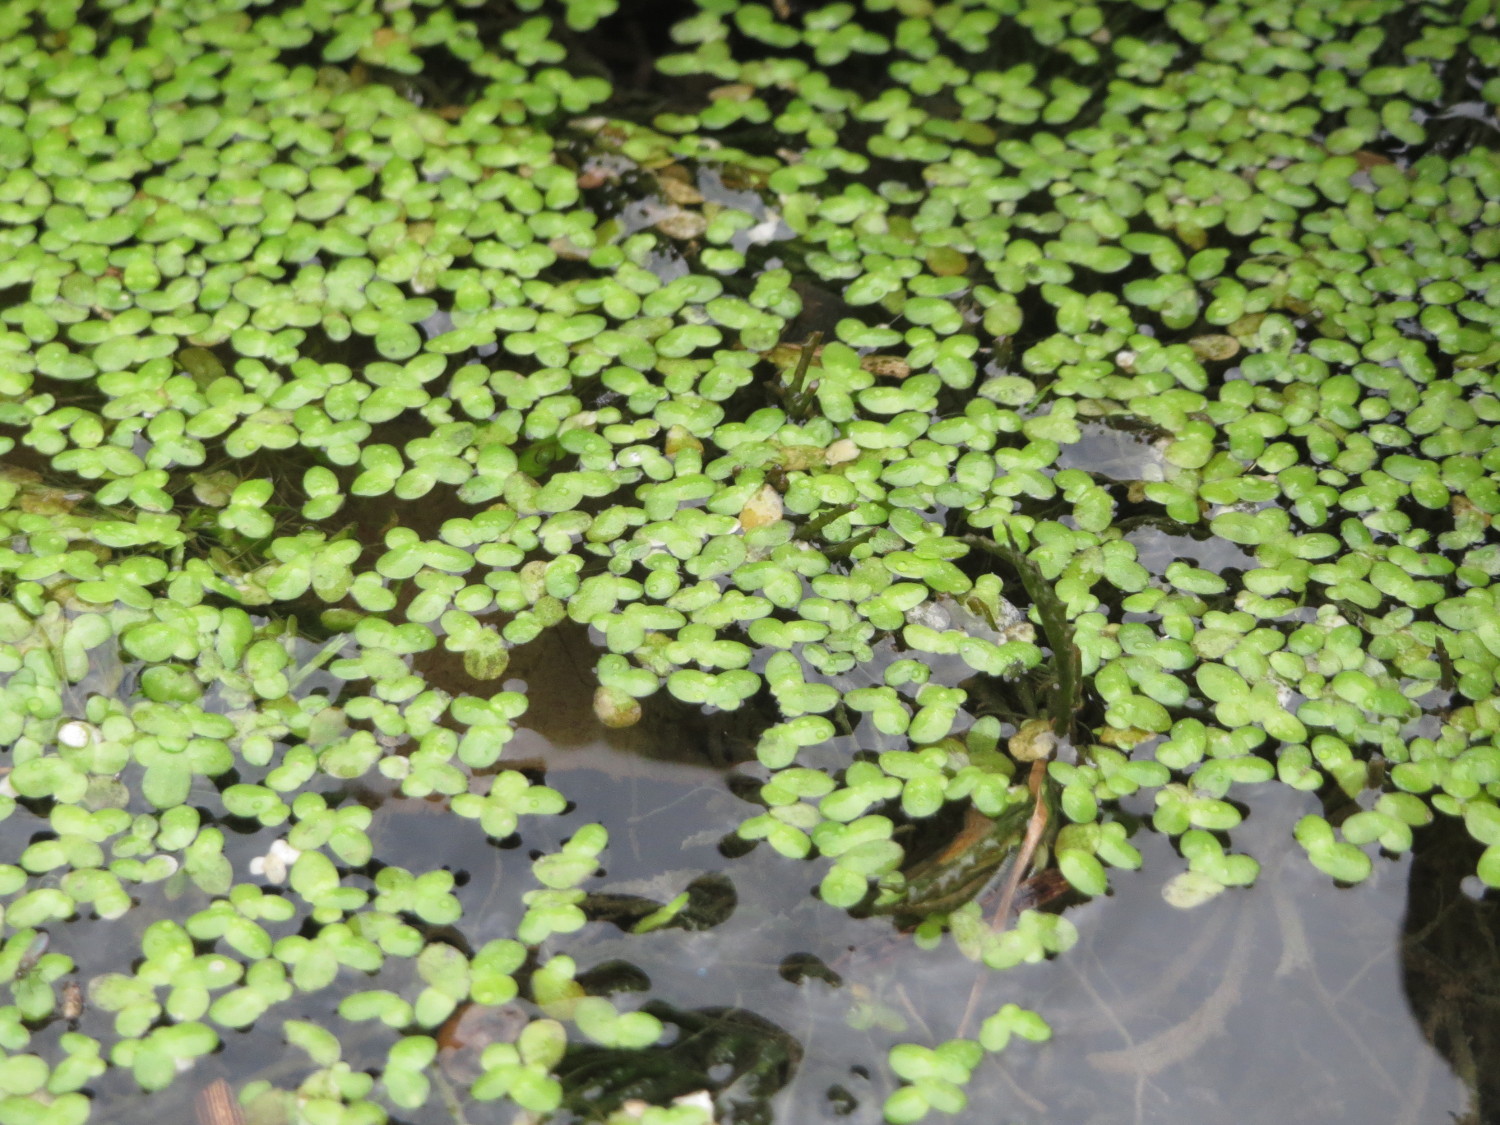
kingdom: Plantae
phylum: Tracheophyta
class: Liliopsida
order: Alismatales
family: Araceae
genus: Lemna
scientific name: Lemna minor
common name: Common duckweed
